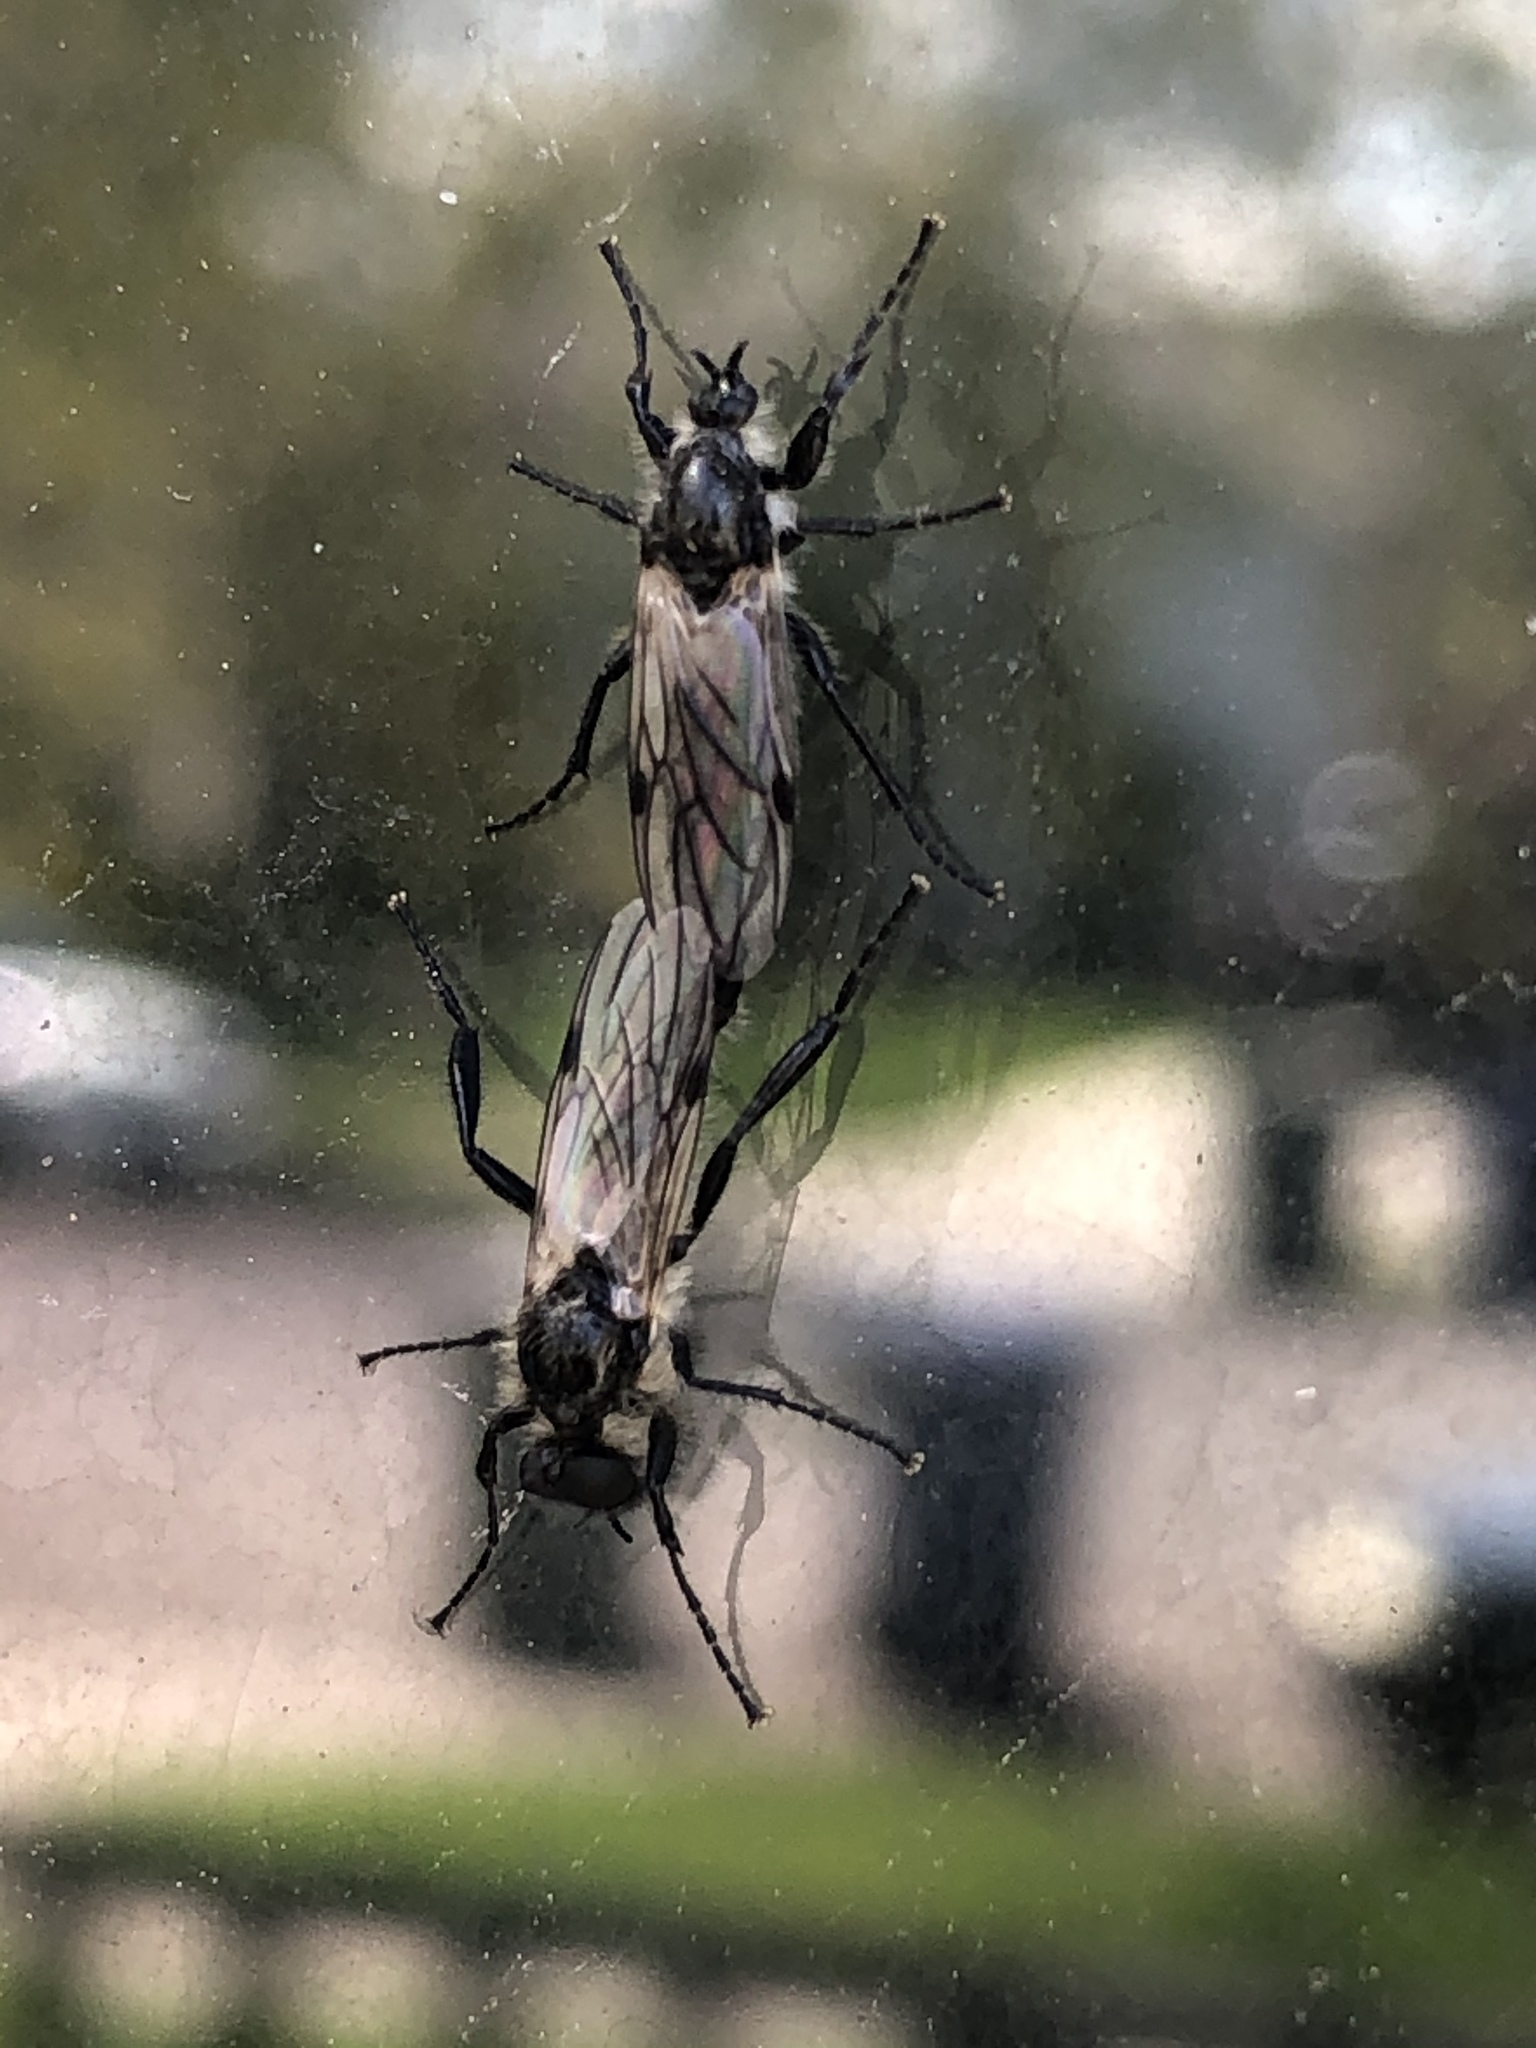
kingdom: Animalia
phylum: Arthropoda
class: Insecta
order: Diptera
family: Bibionidae
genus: Bibio
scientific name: Bibio albipennis
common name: White-winged march fly
